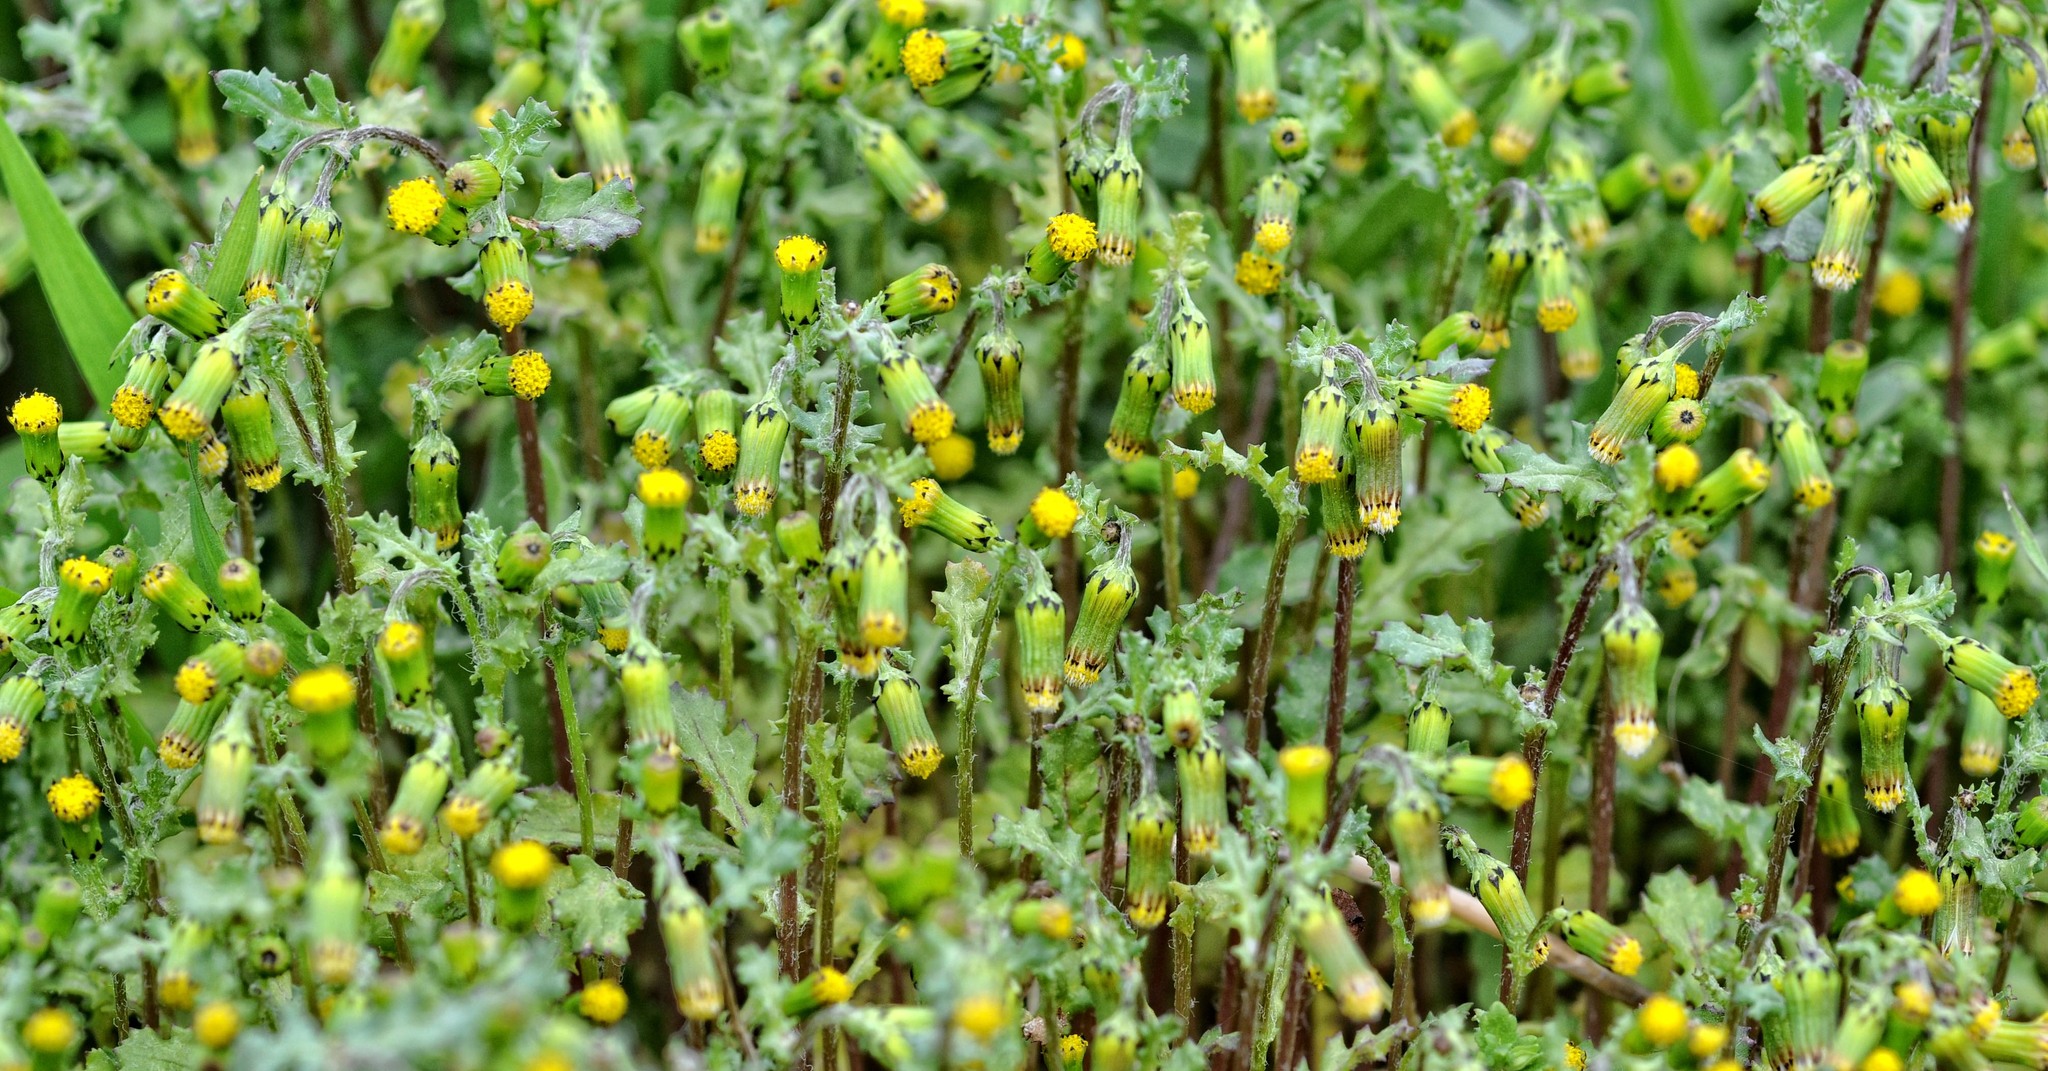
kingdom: Plantae
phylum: Tracheophyta
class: Magnoliopsida
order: Asterales
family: Asteraceae
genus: Senecio
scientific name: Senecio vulgaris
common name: Old-man-in-the-spring
